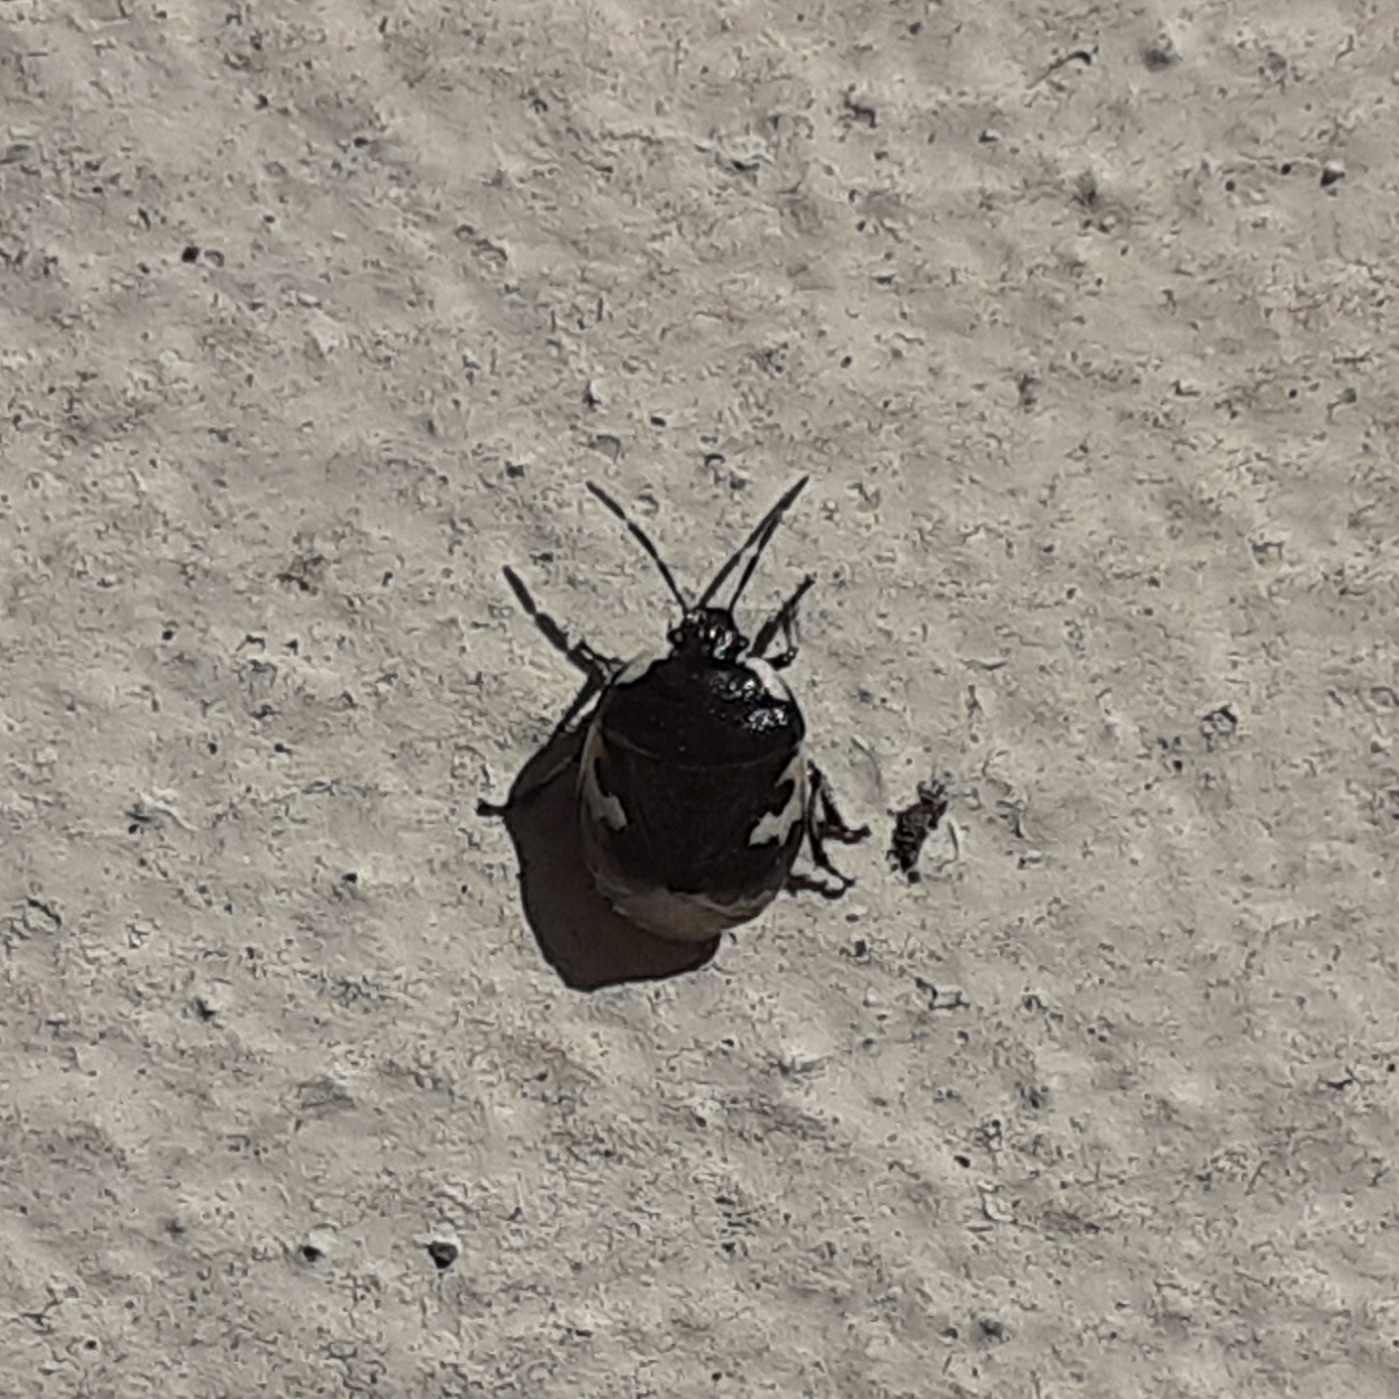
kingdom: Animalia
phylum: Arthropoda
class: Insecta
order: Hemiptera
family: Cydnidae
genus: Tritomegas
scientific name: Tritomegas bicolor
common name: Pied shieldbug
